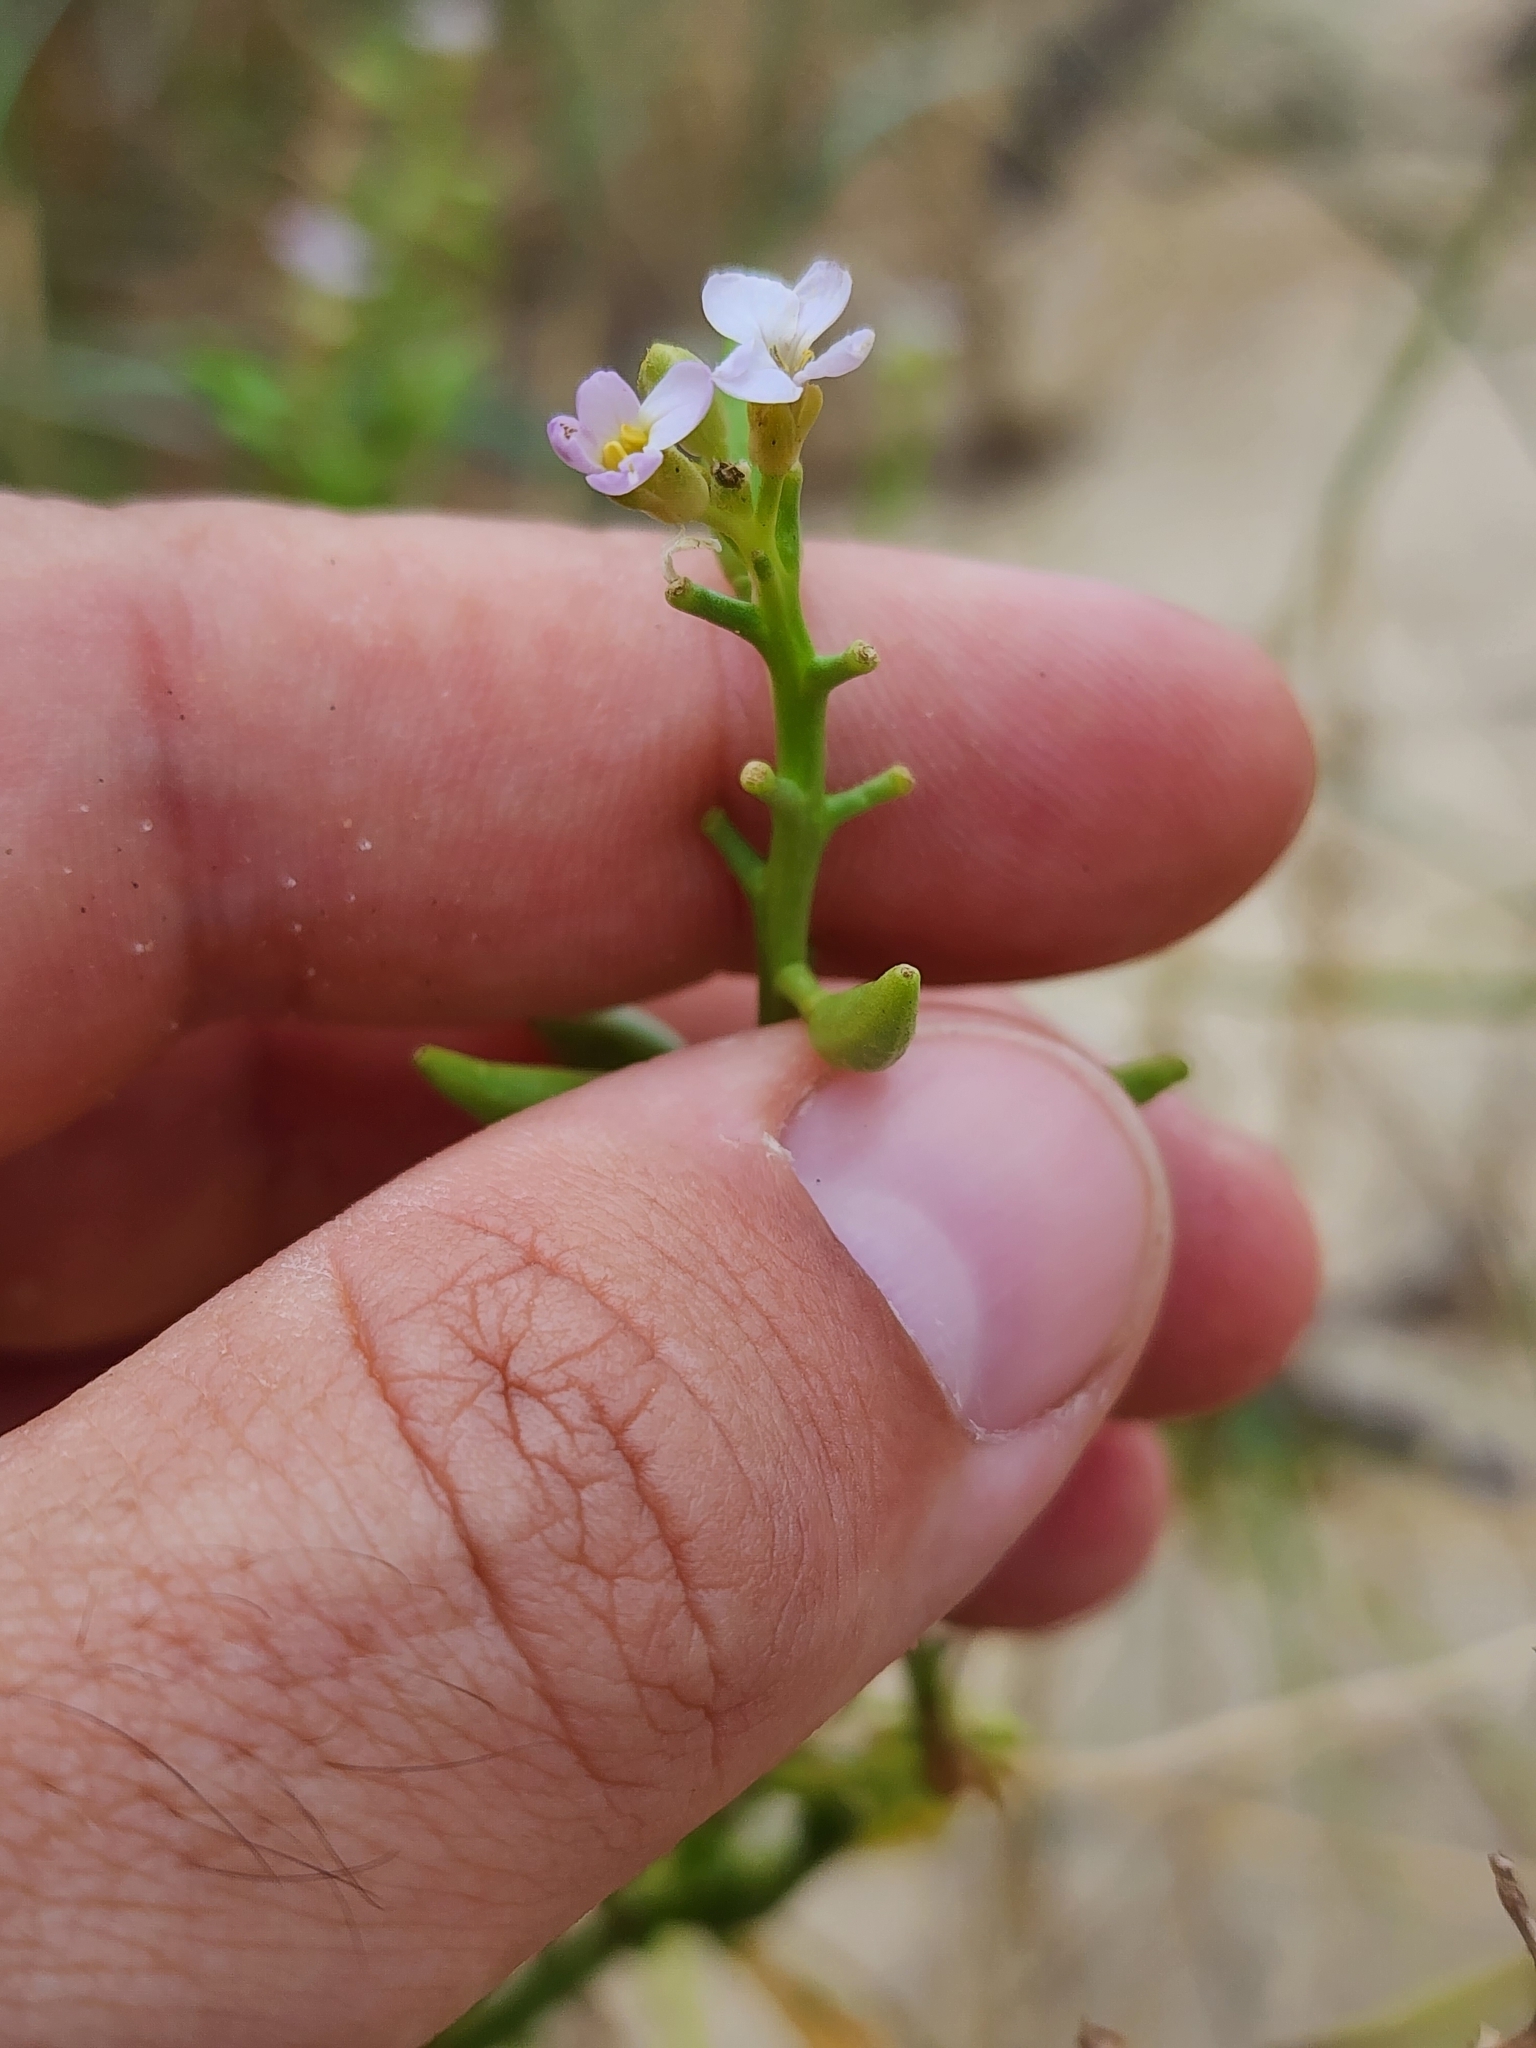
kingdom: Plantae
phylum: Tracheophyta
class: Magnoliopsida
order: Brassicales
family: Brassicaceae
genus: Cakile
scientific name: Cakile maritima
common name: Sea rocket
